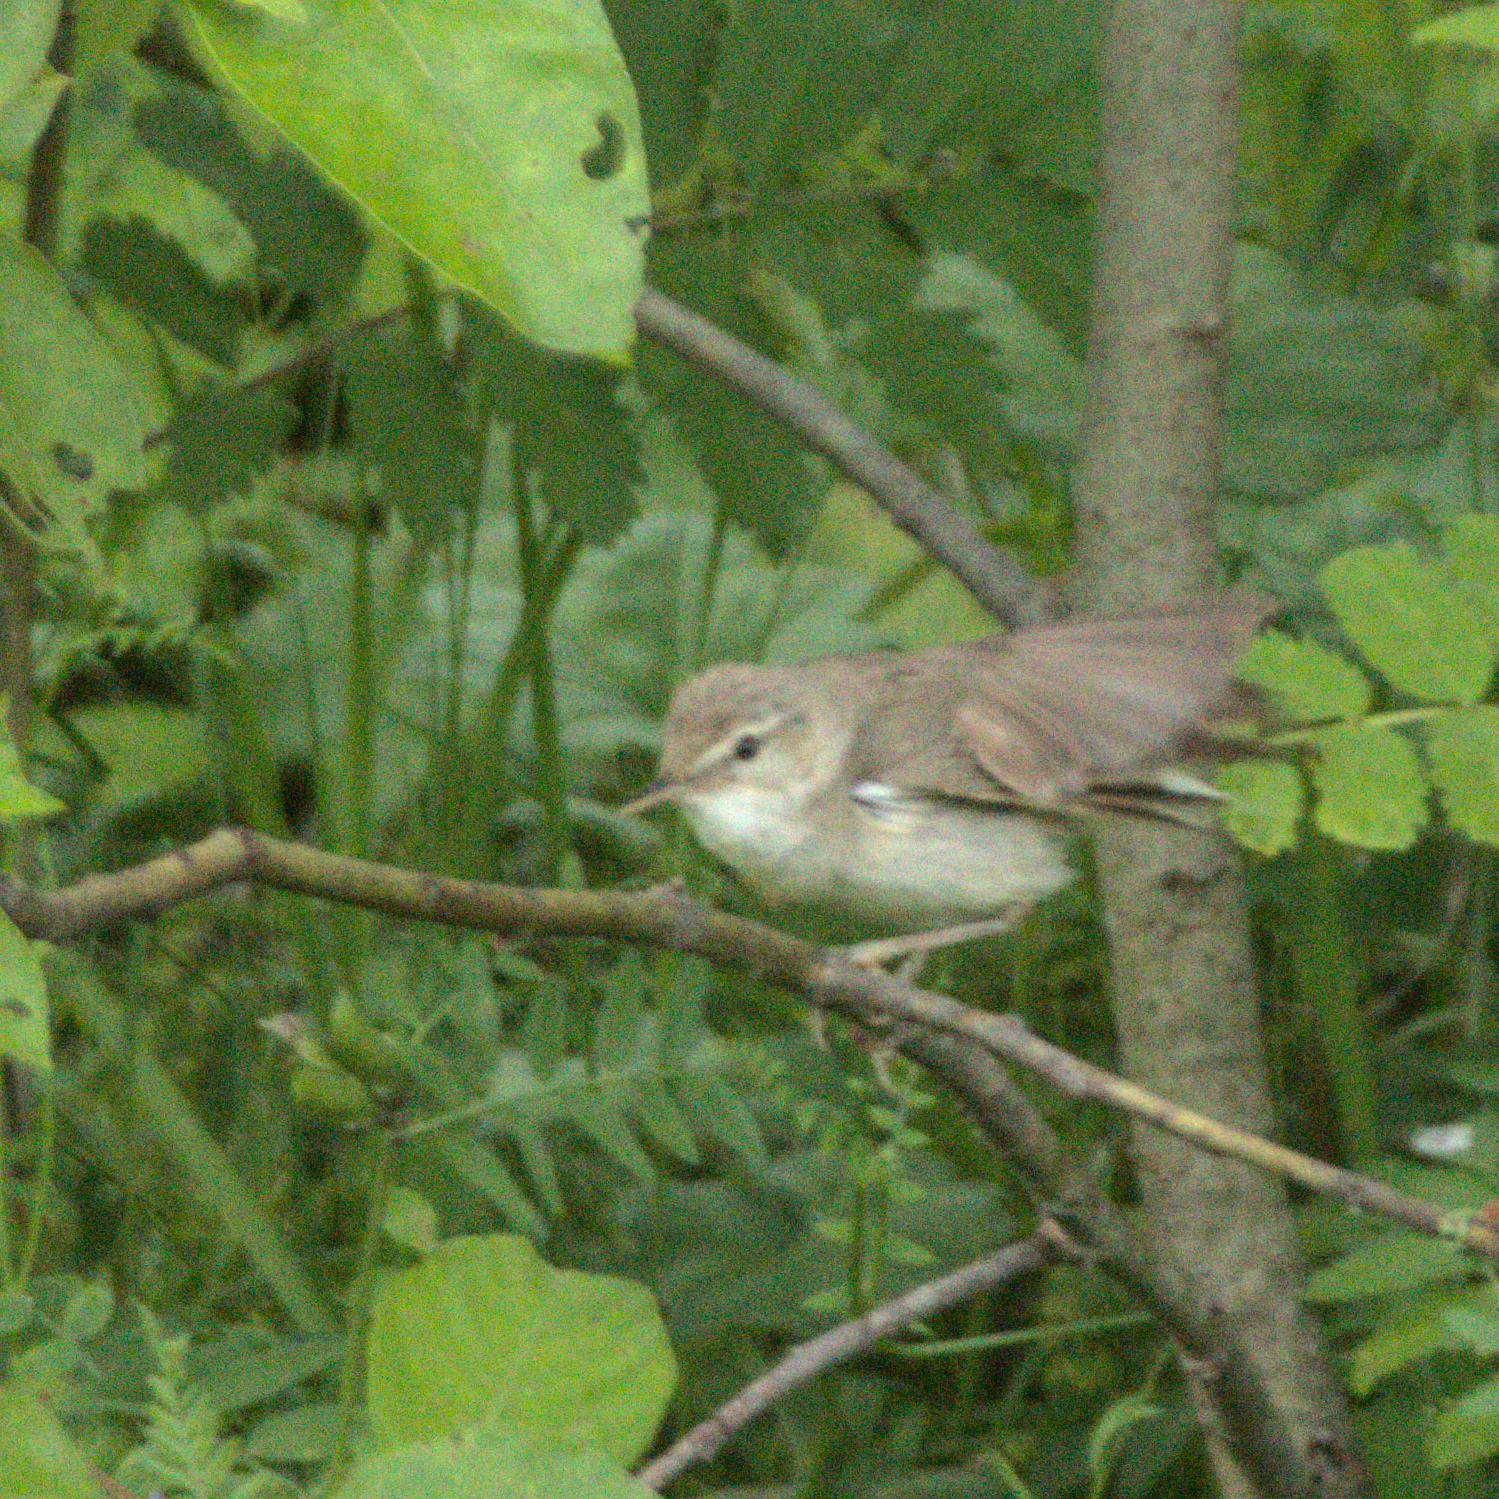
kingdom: Animalia
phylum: Chordata
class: Aves
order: Passeriformes
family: Acrocephalidae
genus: Acrocephalus
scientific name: Acrocephalus dumetorum
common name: Blyth's reed warbler
